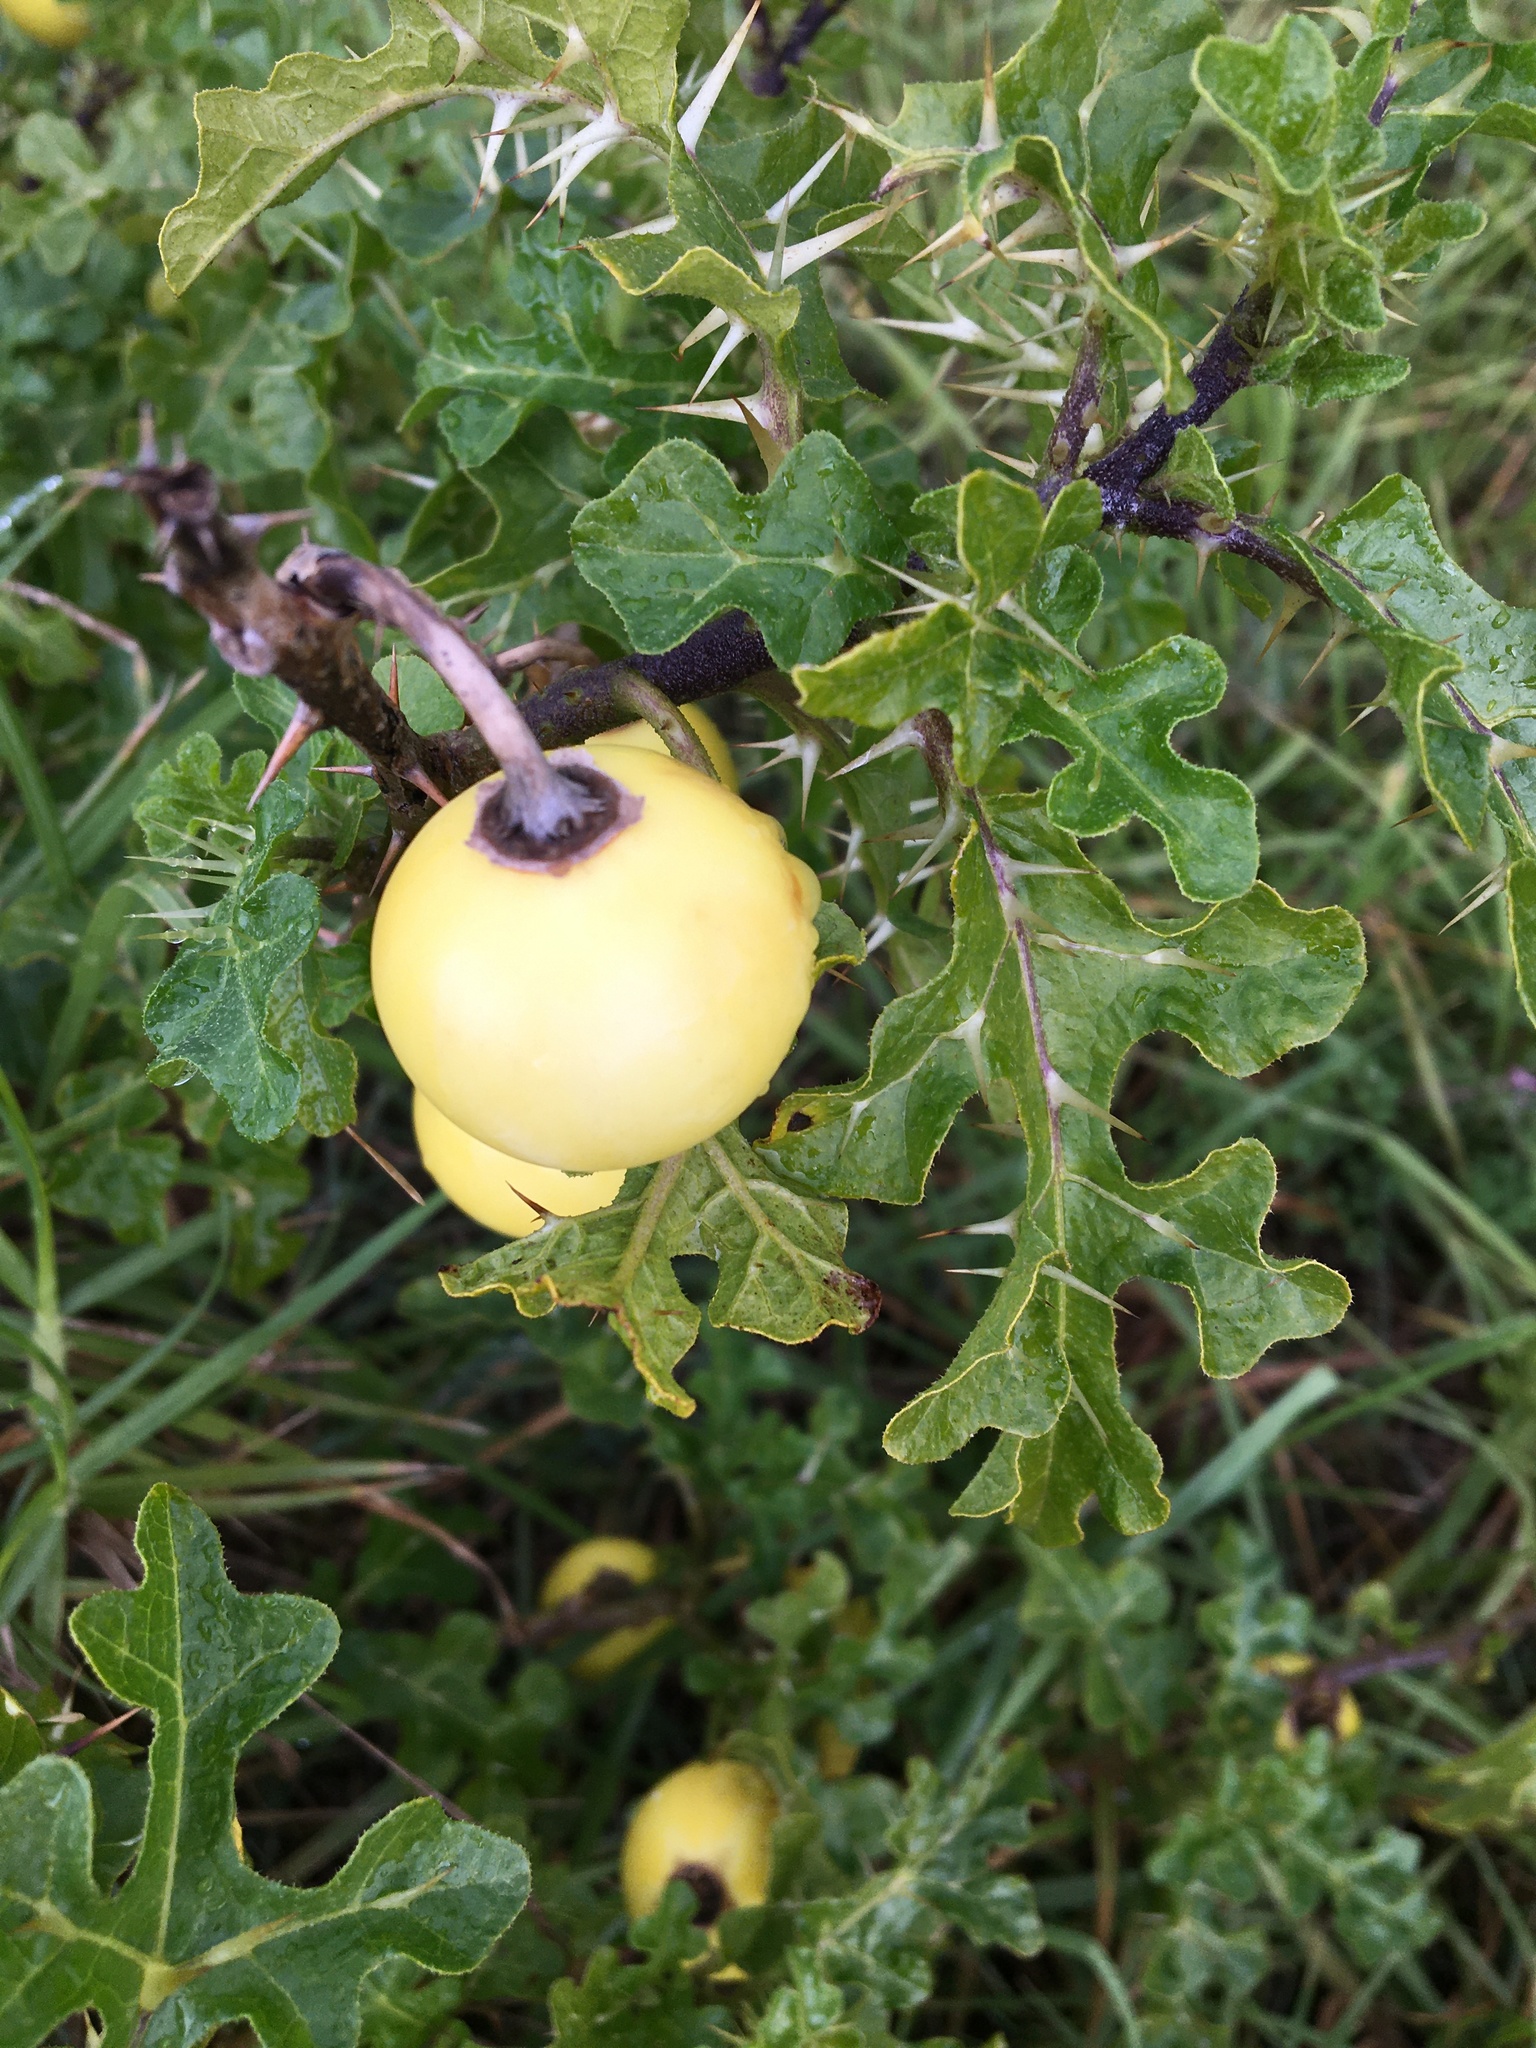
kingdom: Plantae
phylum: Tracheophyta
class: Magnoliopsida
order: Solanales
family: Solanaceae
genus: Solanum
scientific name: Solanum linnaeanum
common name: Nightshade
